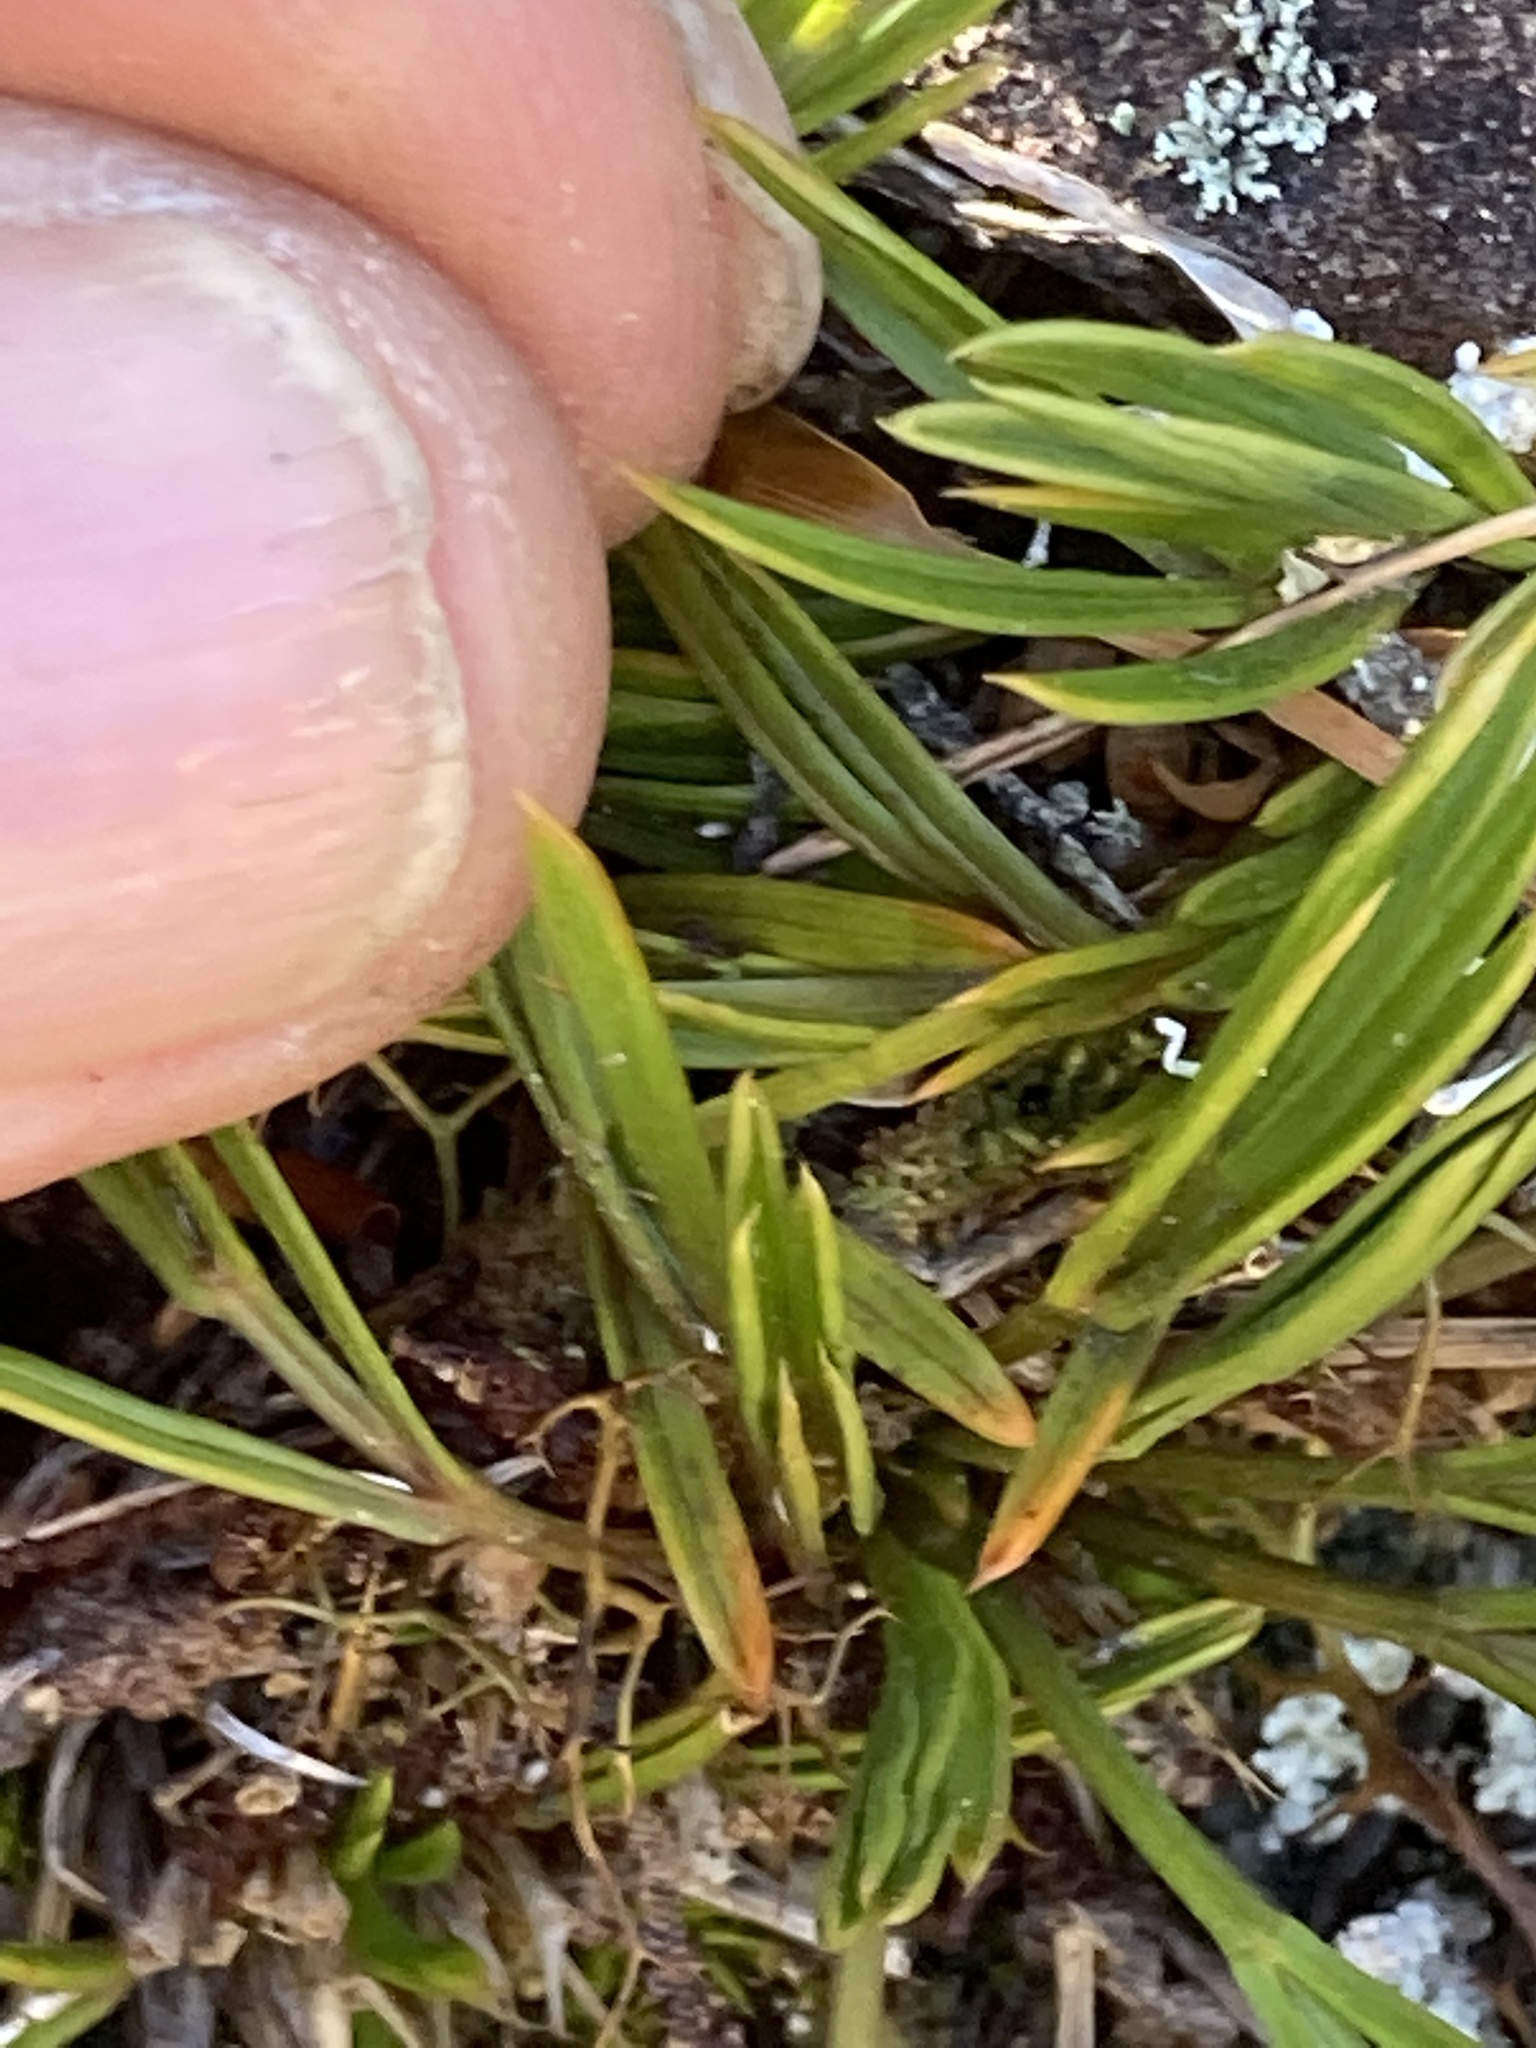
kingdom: Plantae
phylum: Tracheophyta
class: Magnoliopsida
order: Apiales
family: Apiaceae
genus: Aciphylla
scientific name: Aciphylla monroi
